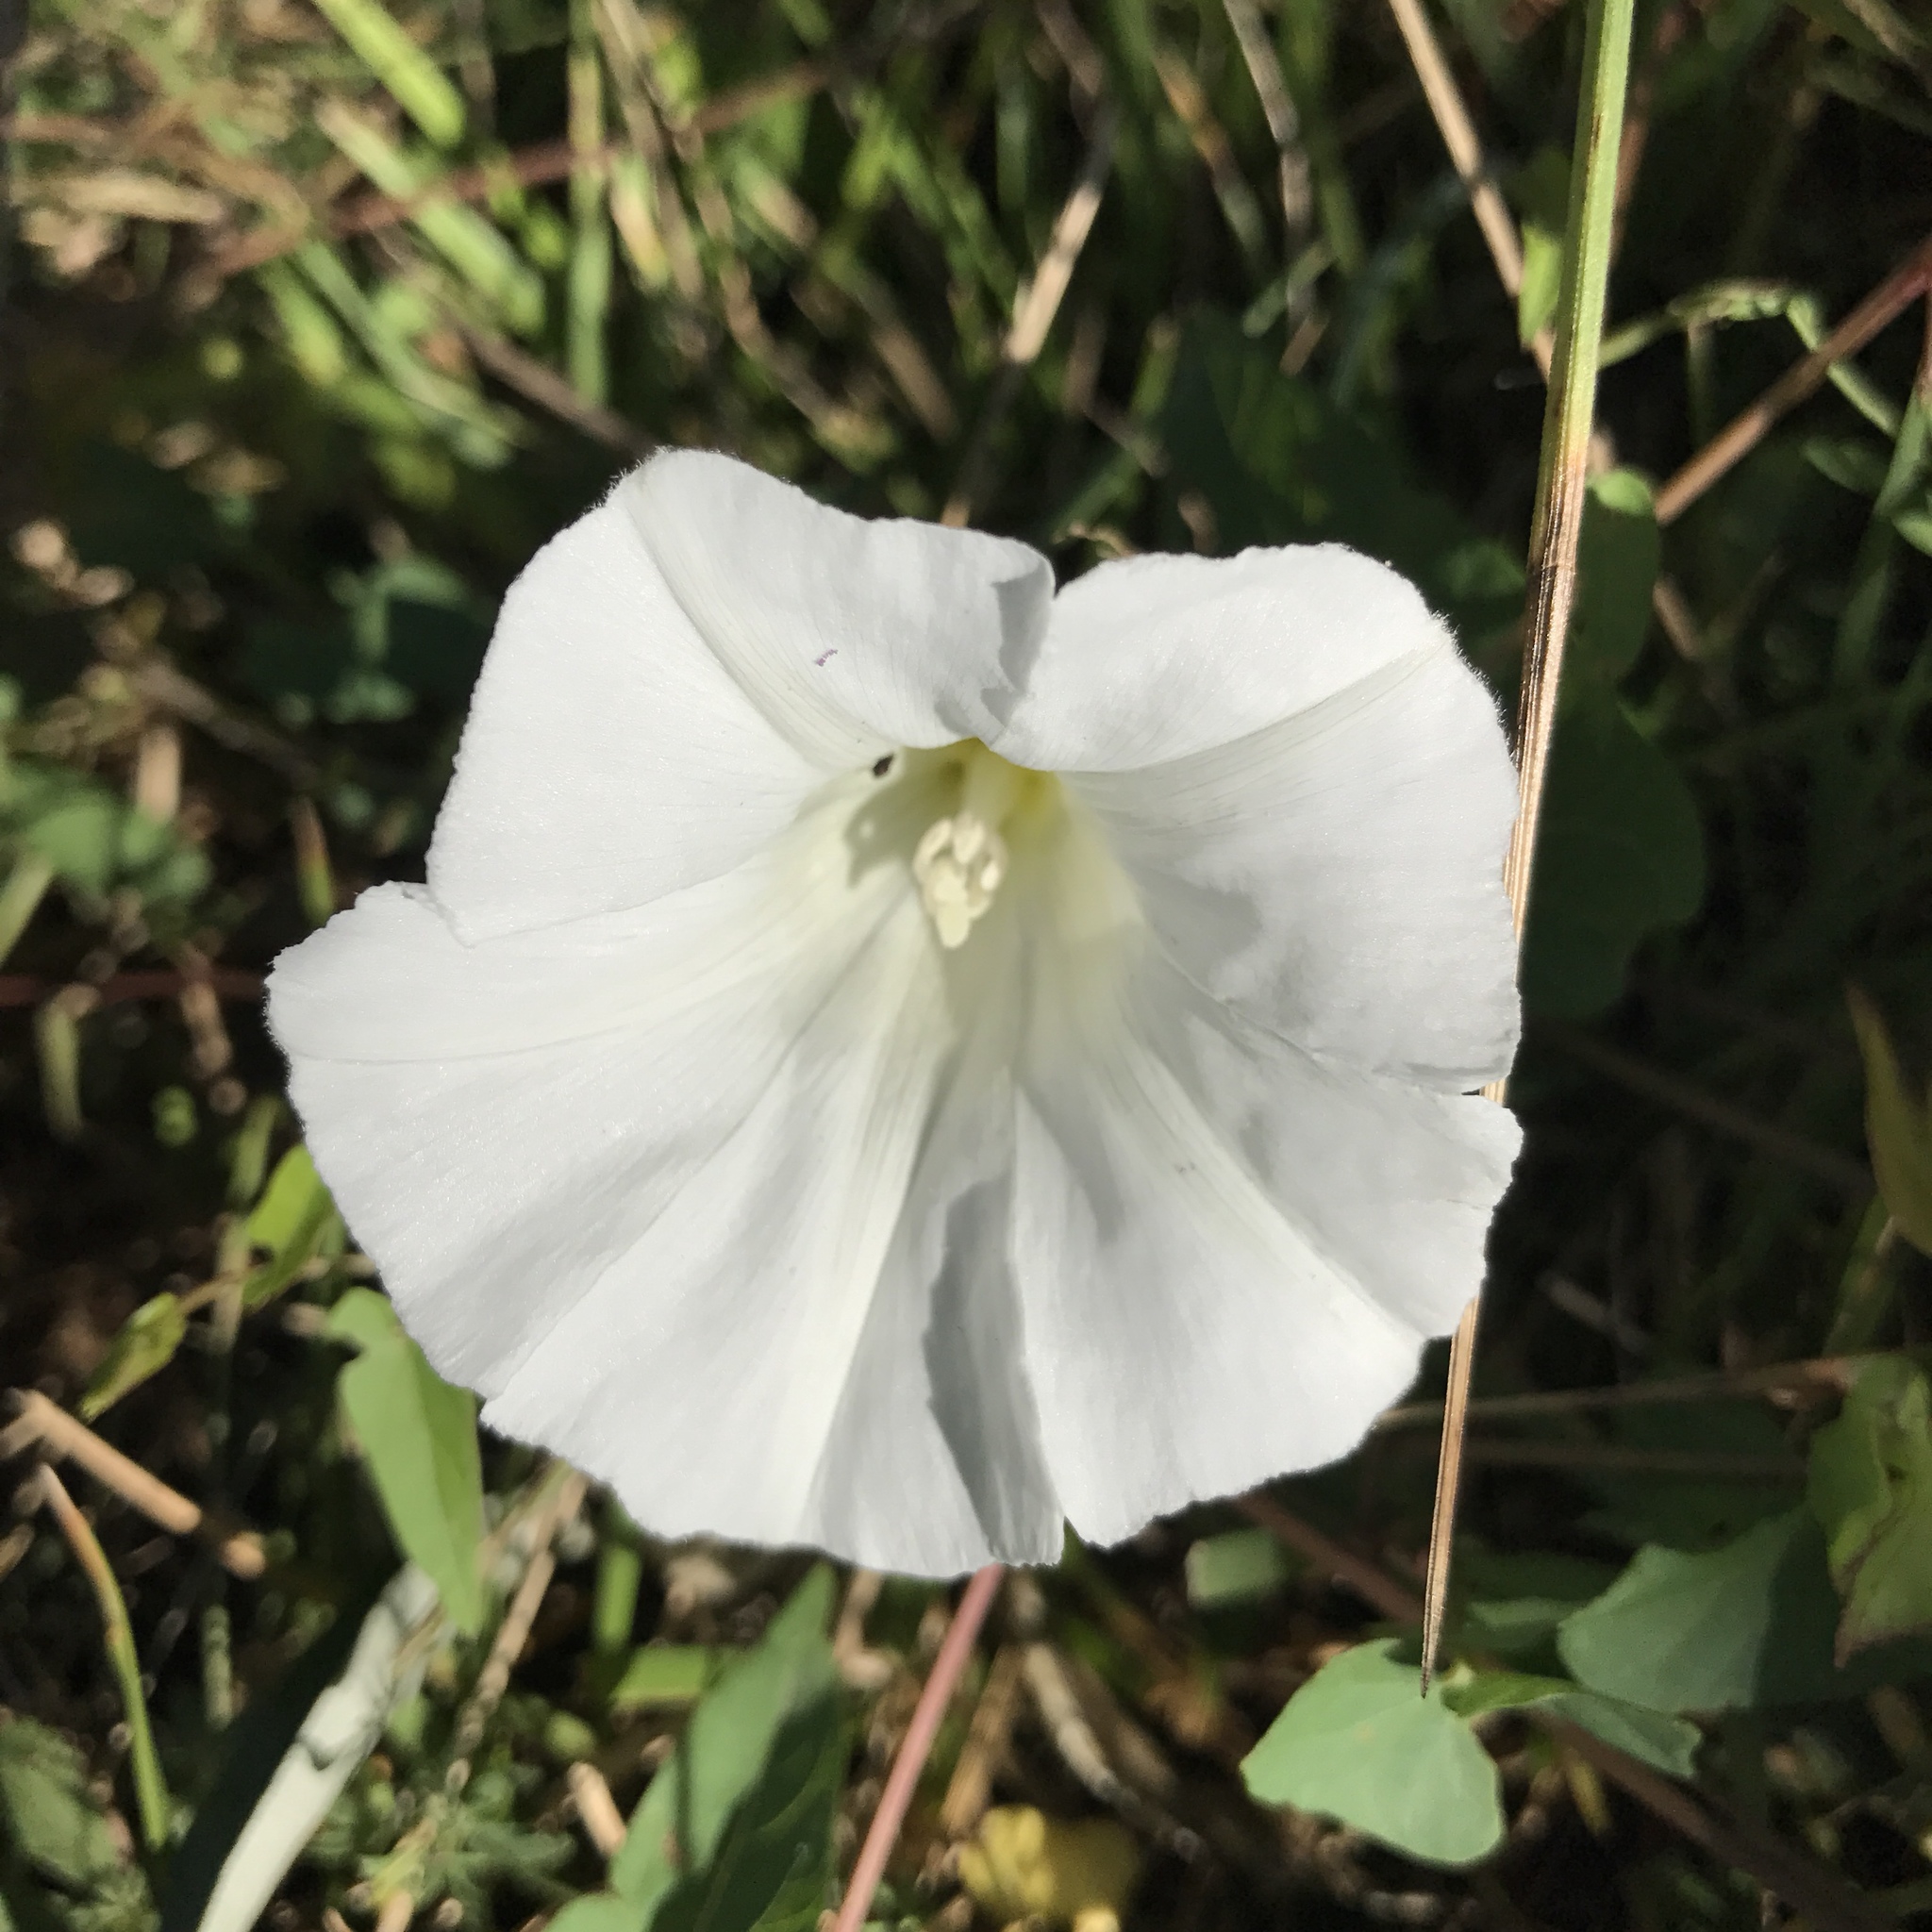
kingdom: Plantae
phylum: Tracheophyta
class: Magnoliopsida
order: Solanales
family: Convolvulaceae
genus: Calystegia
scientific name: Calystegia sepium
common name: Hedge bindweed
